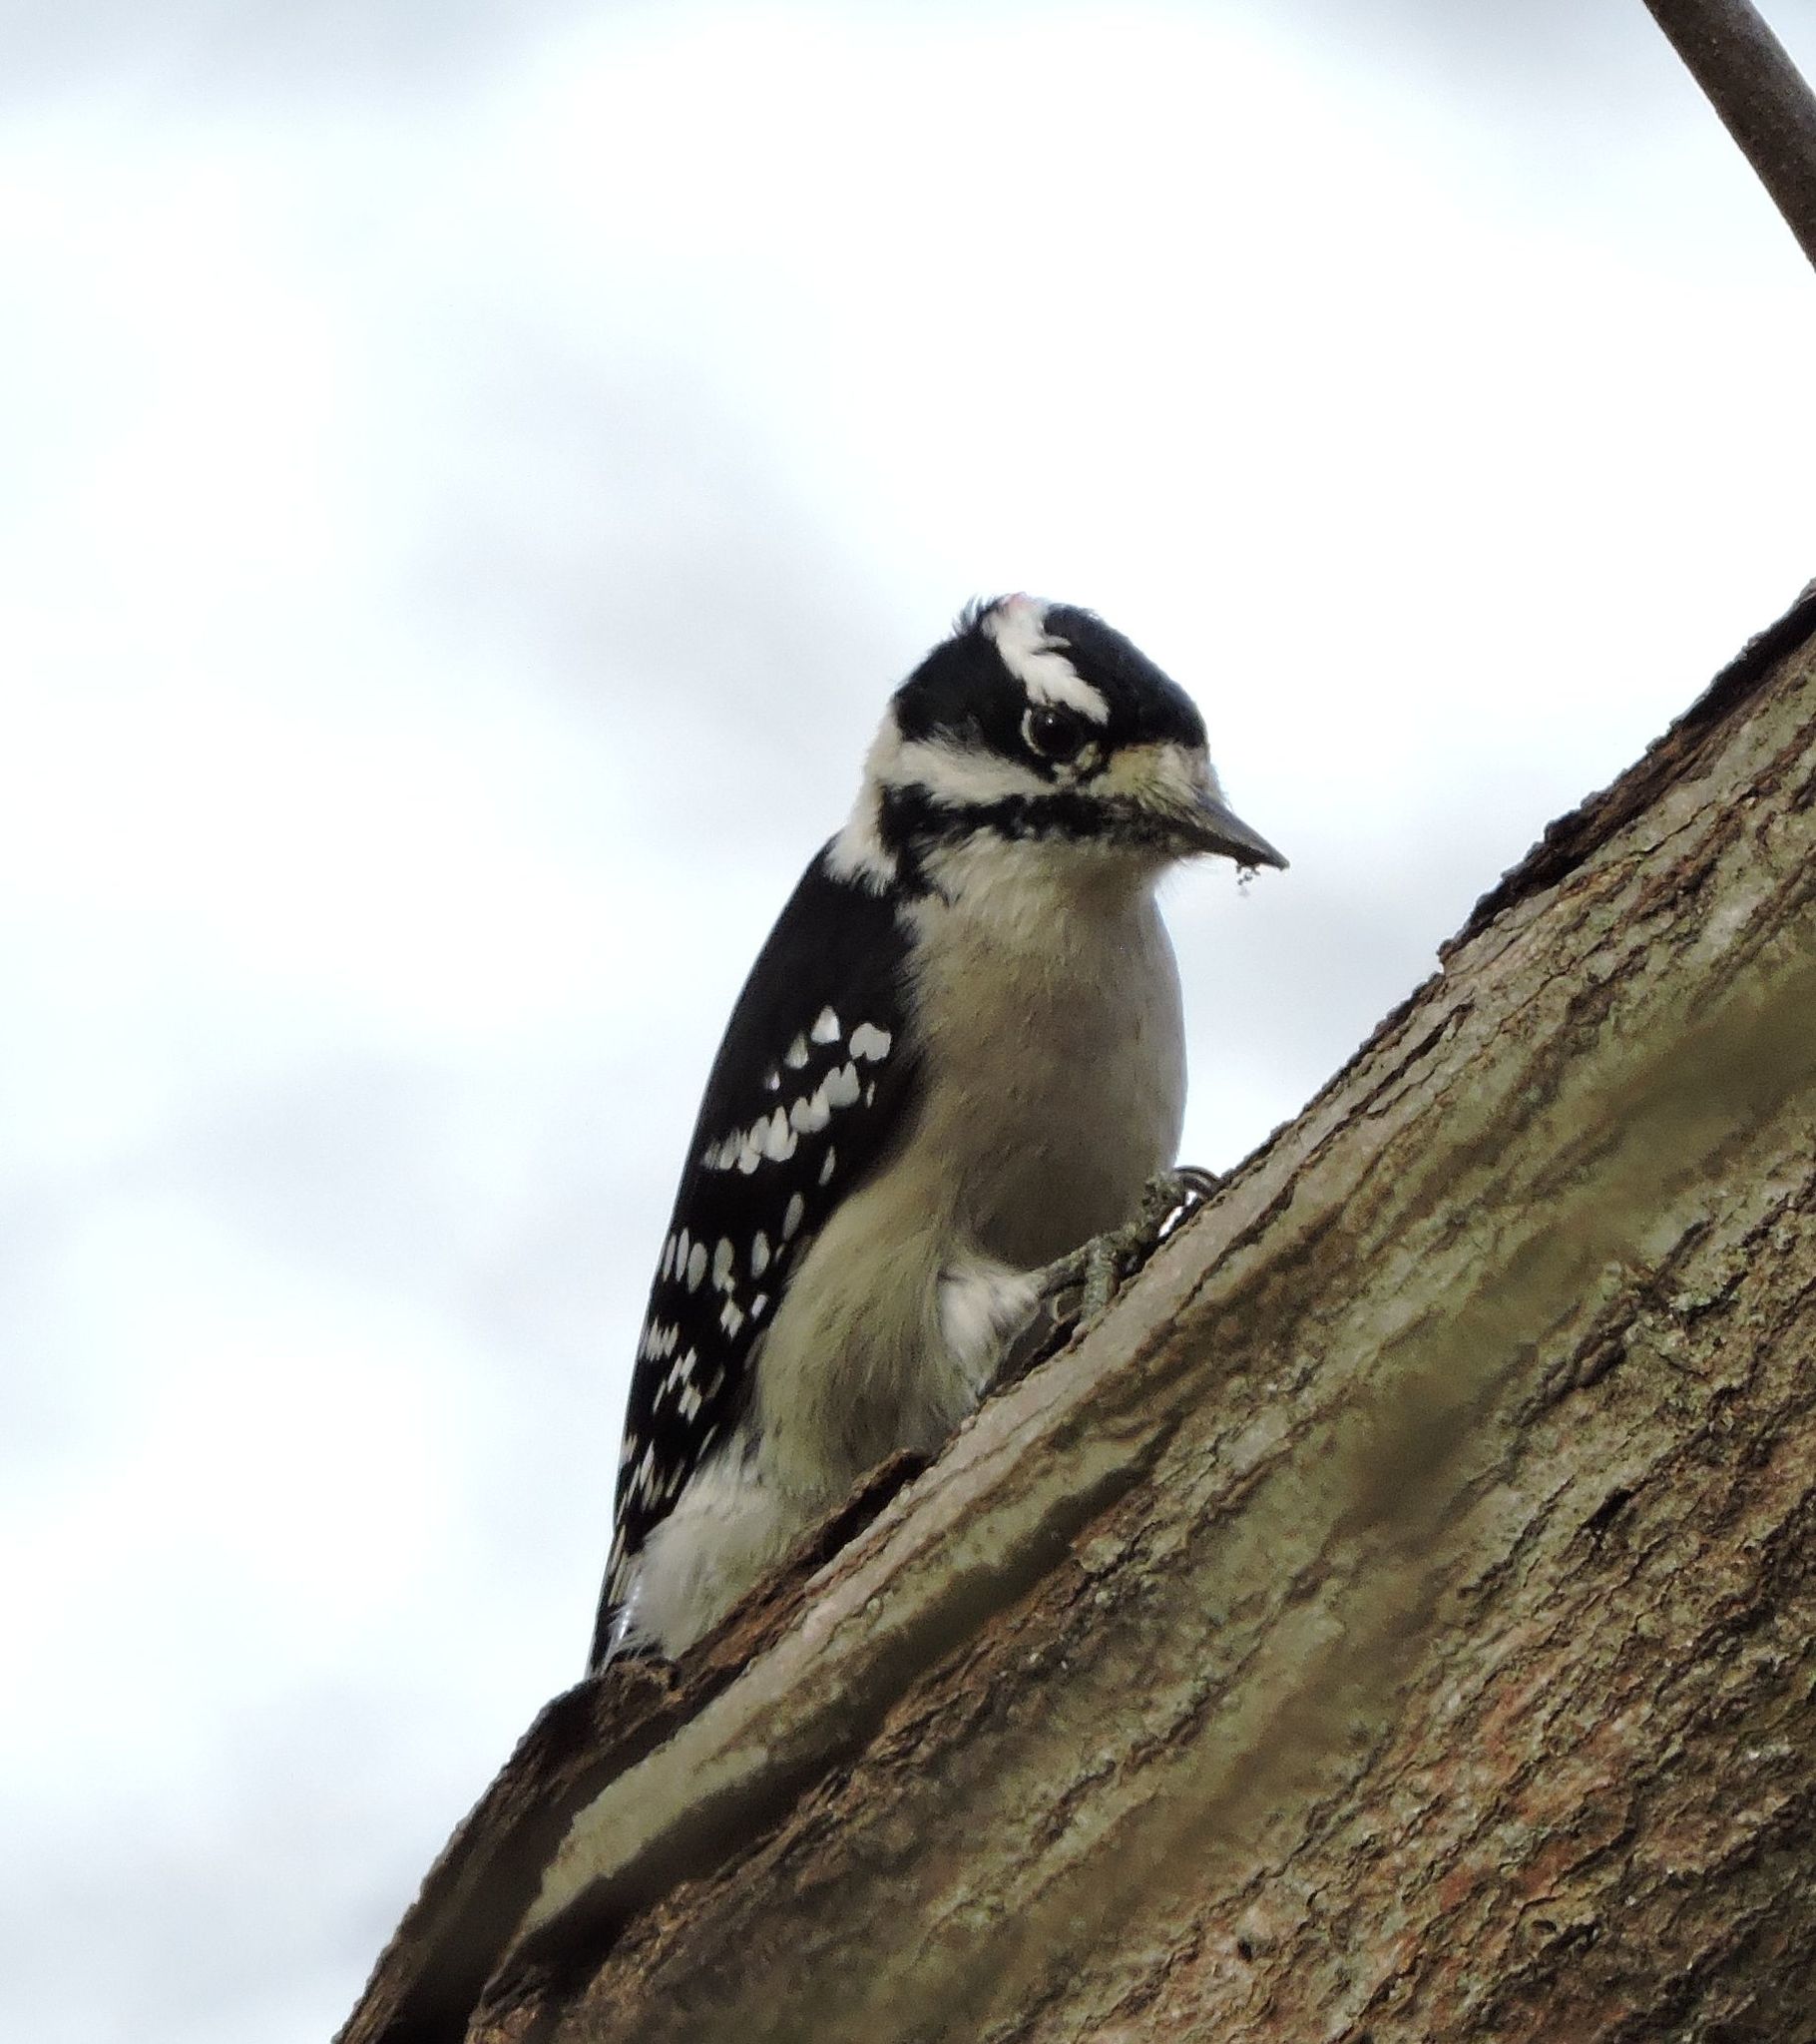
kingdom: Animalia
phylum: Chordata
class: Aves
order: Piciformes
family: Picidae
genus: Dryobates
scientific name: Dryobates pubescens
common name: Downy woodpecker
